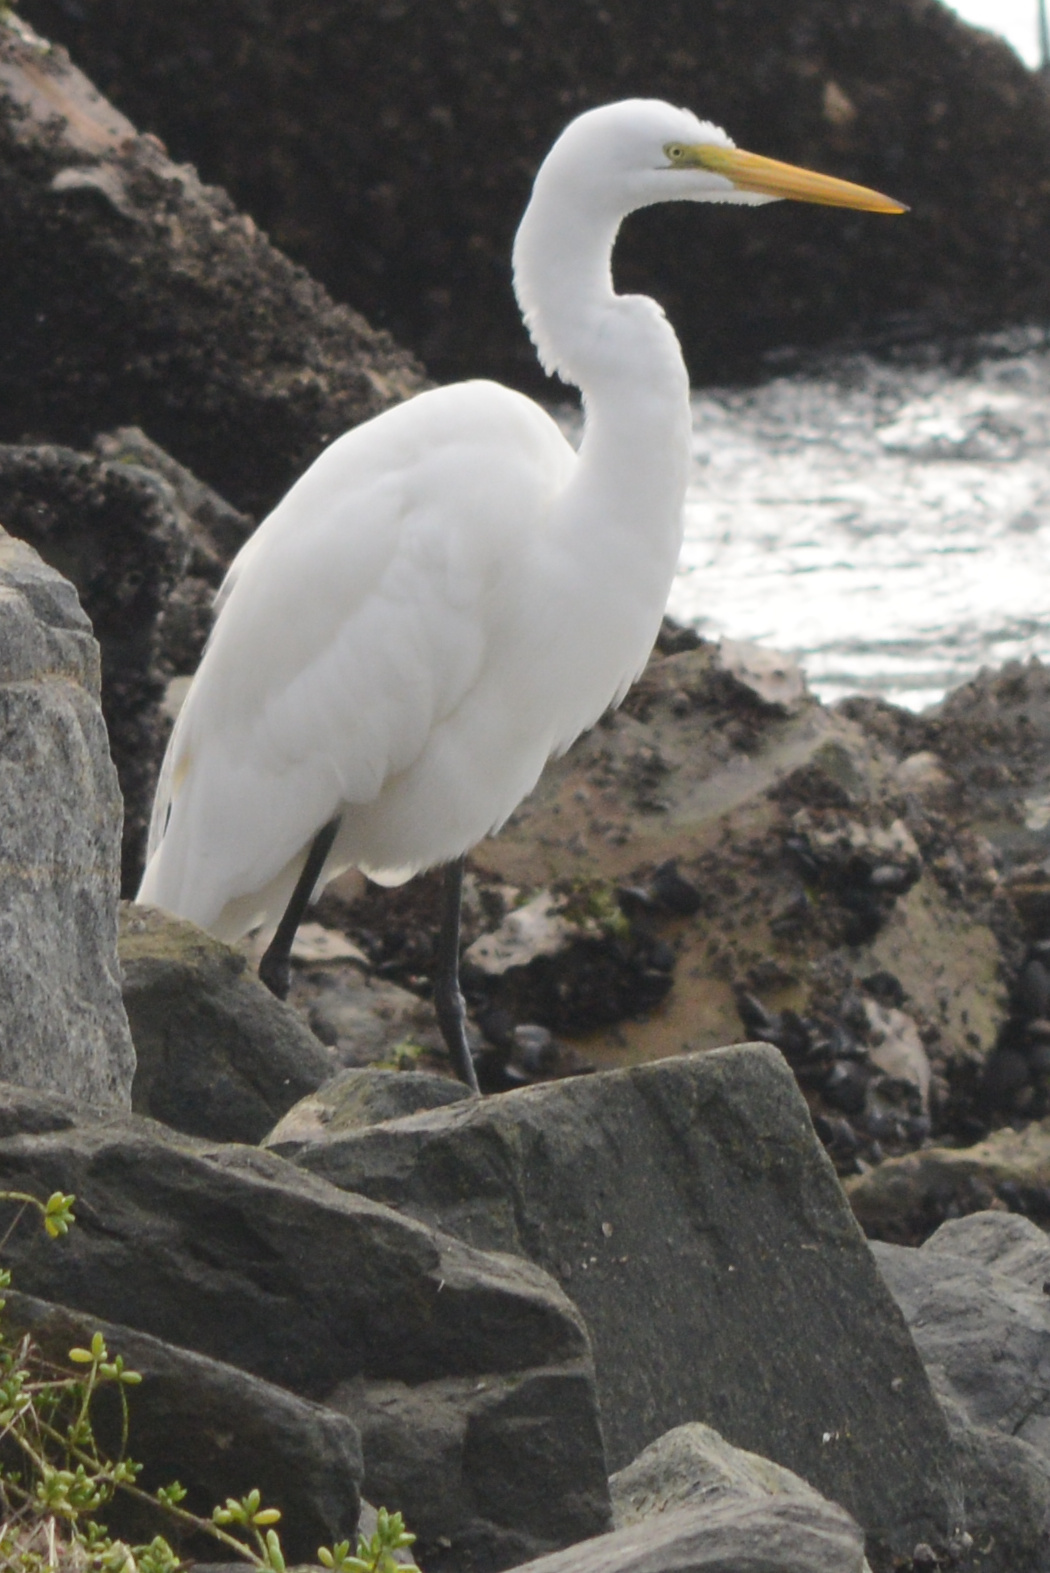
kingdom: Animalia
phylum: Chordata
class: Aves
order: Pelecaniformes
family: Ardeidae
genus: Ardea
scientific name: Ardea alba
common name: Great egret
